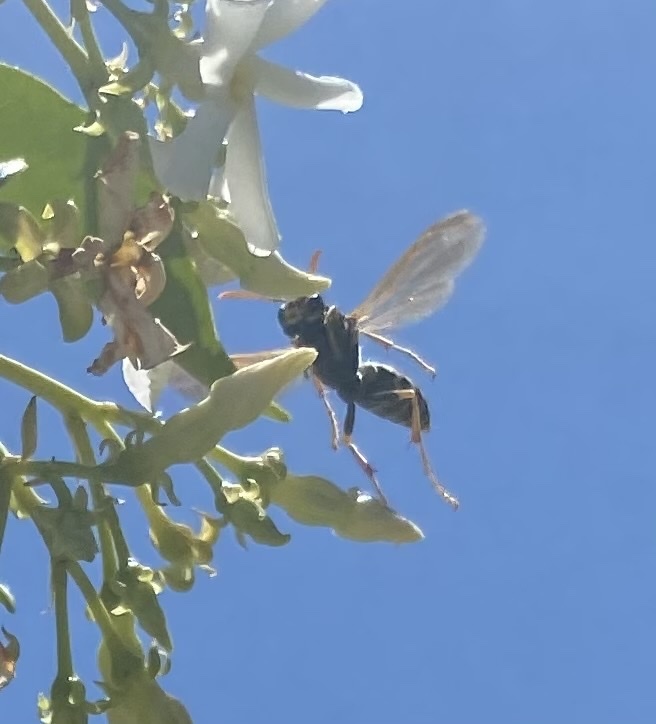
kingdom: Animalia
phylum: Arthropoda
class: Insecta
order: Hymenoptera
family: Eumenidae
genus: Polistes
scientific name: Polistes dominula
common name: Paper wasp
